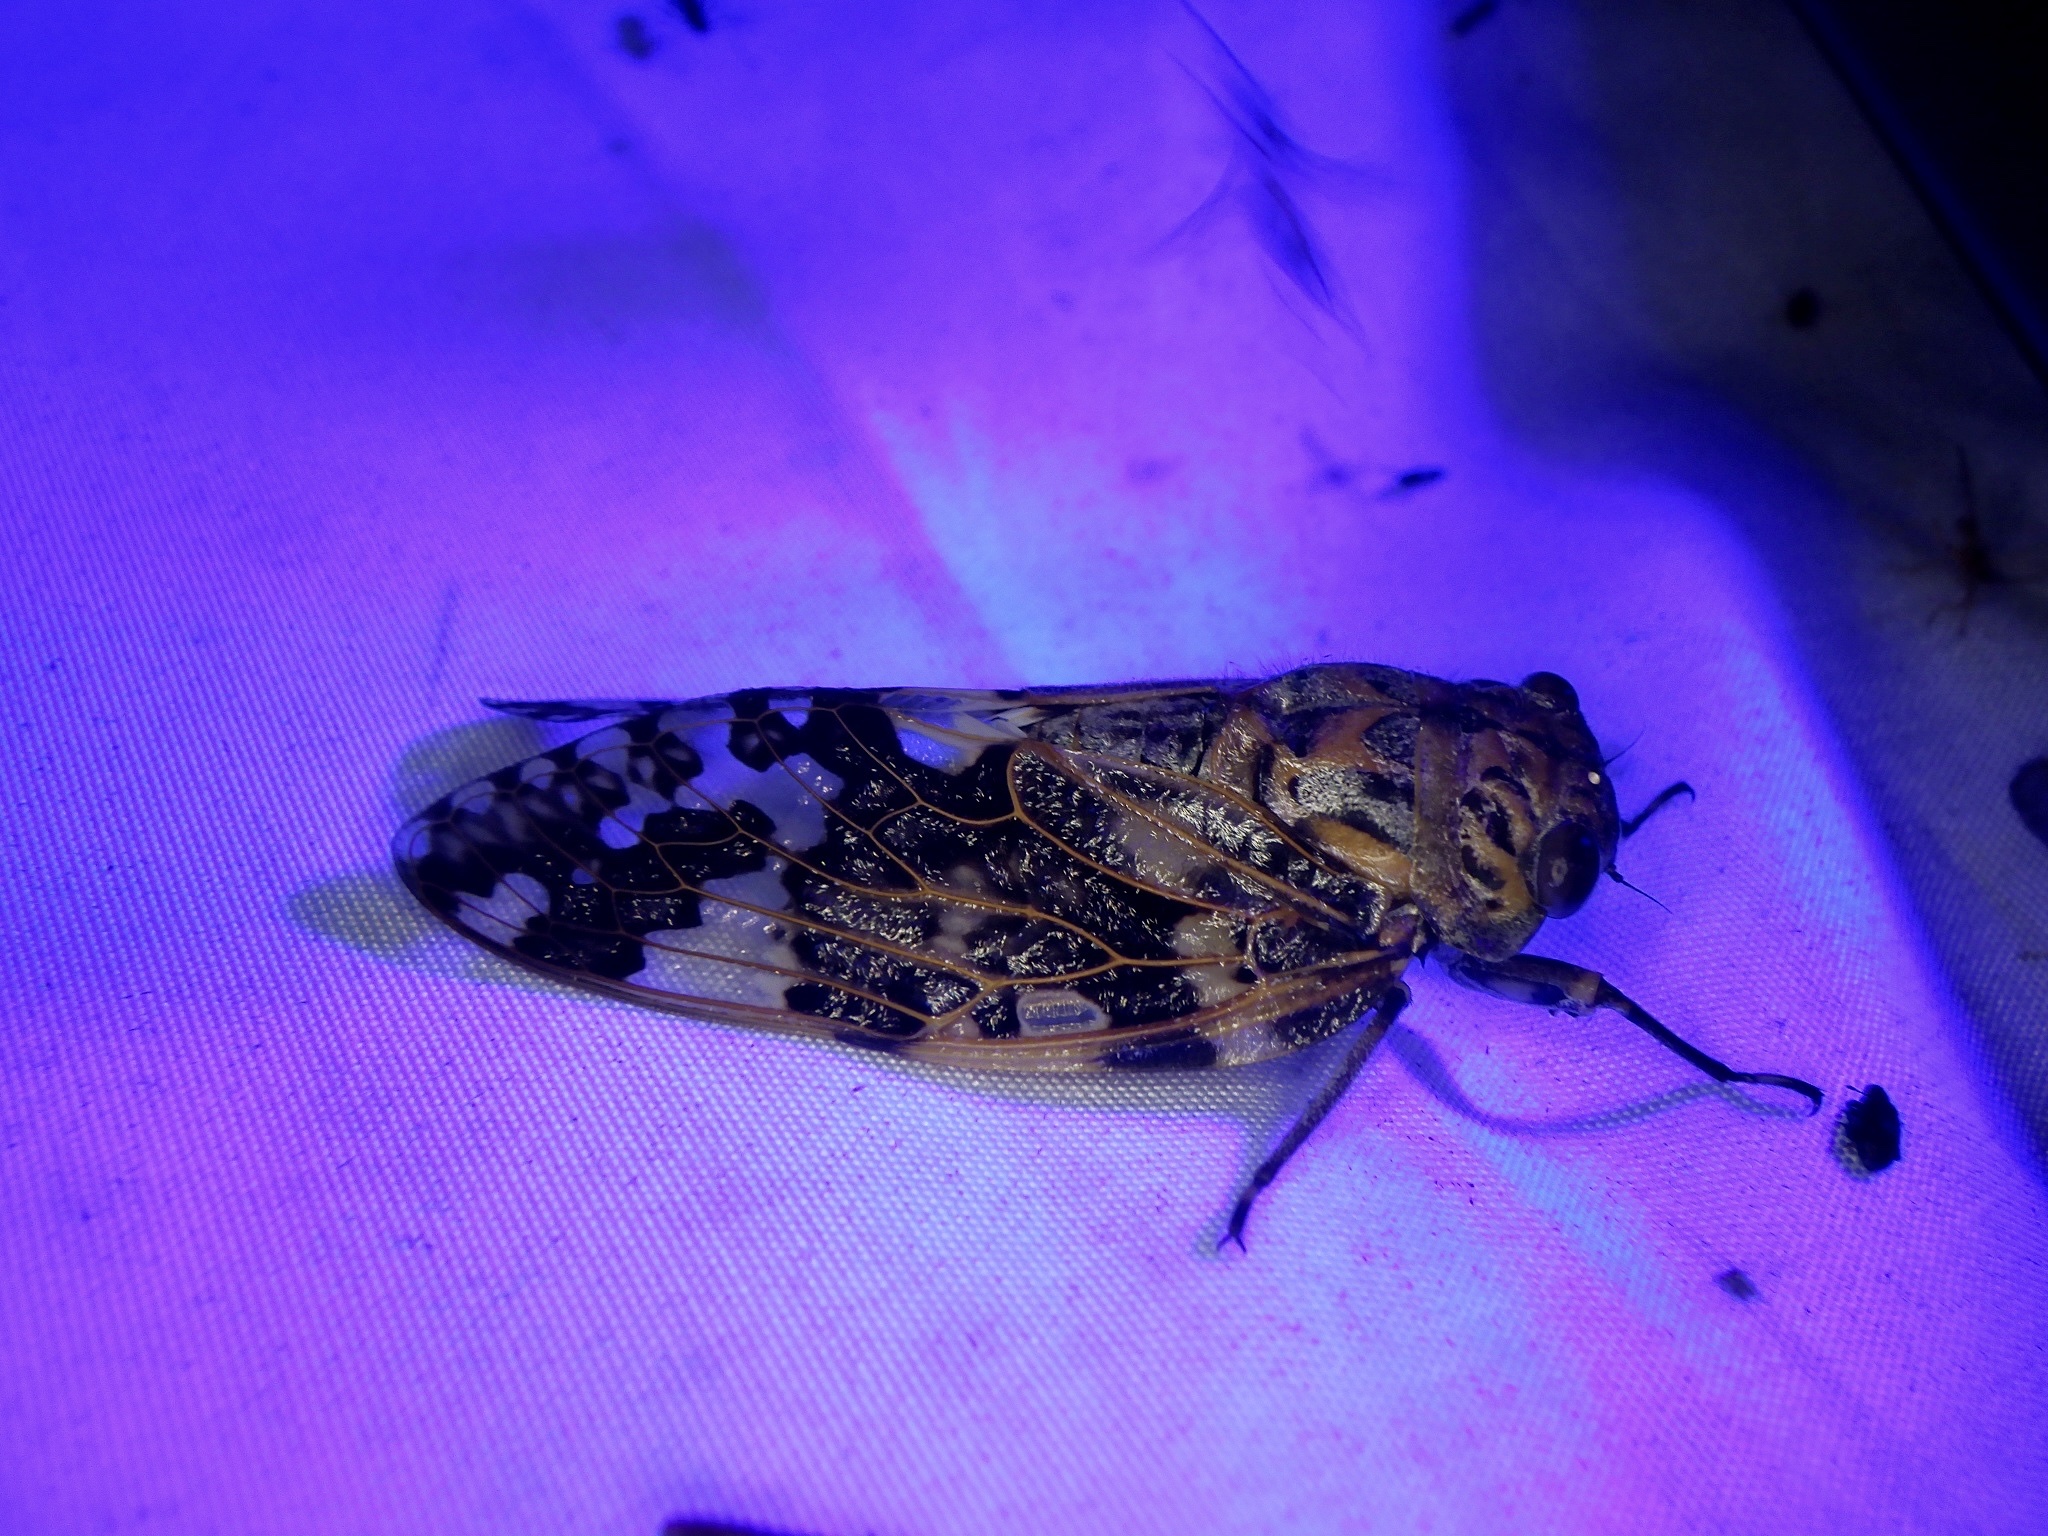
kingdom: Animalia
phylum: Arthropoda
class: Insecta
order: Hemiptera
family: Cicadidae
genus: Platypleura
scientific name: Platypleura kaempferi
